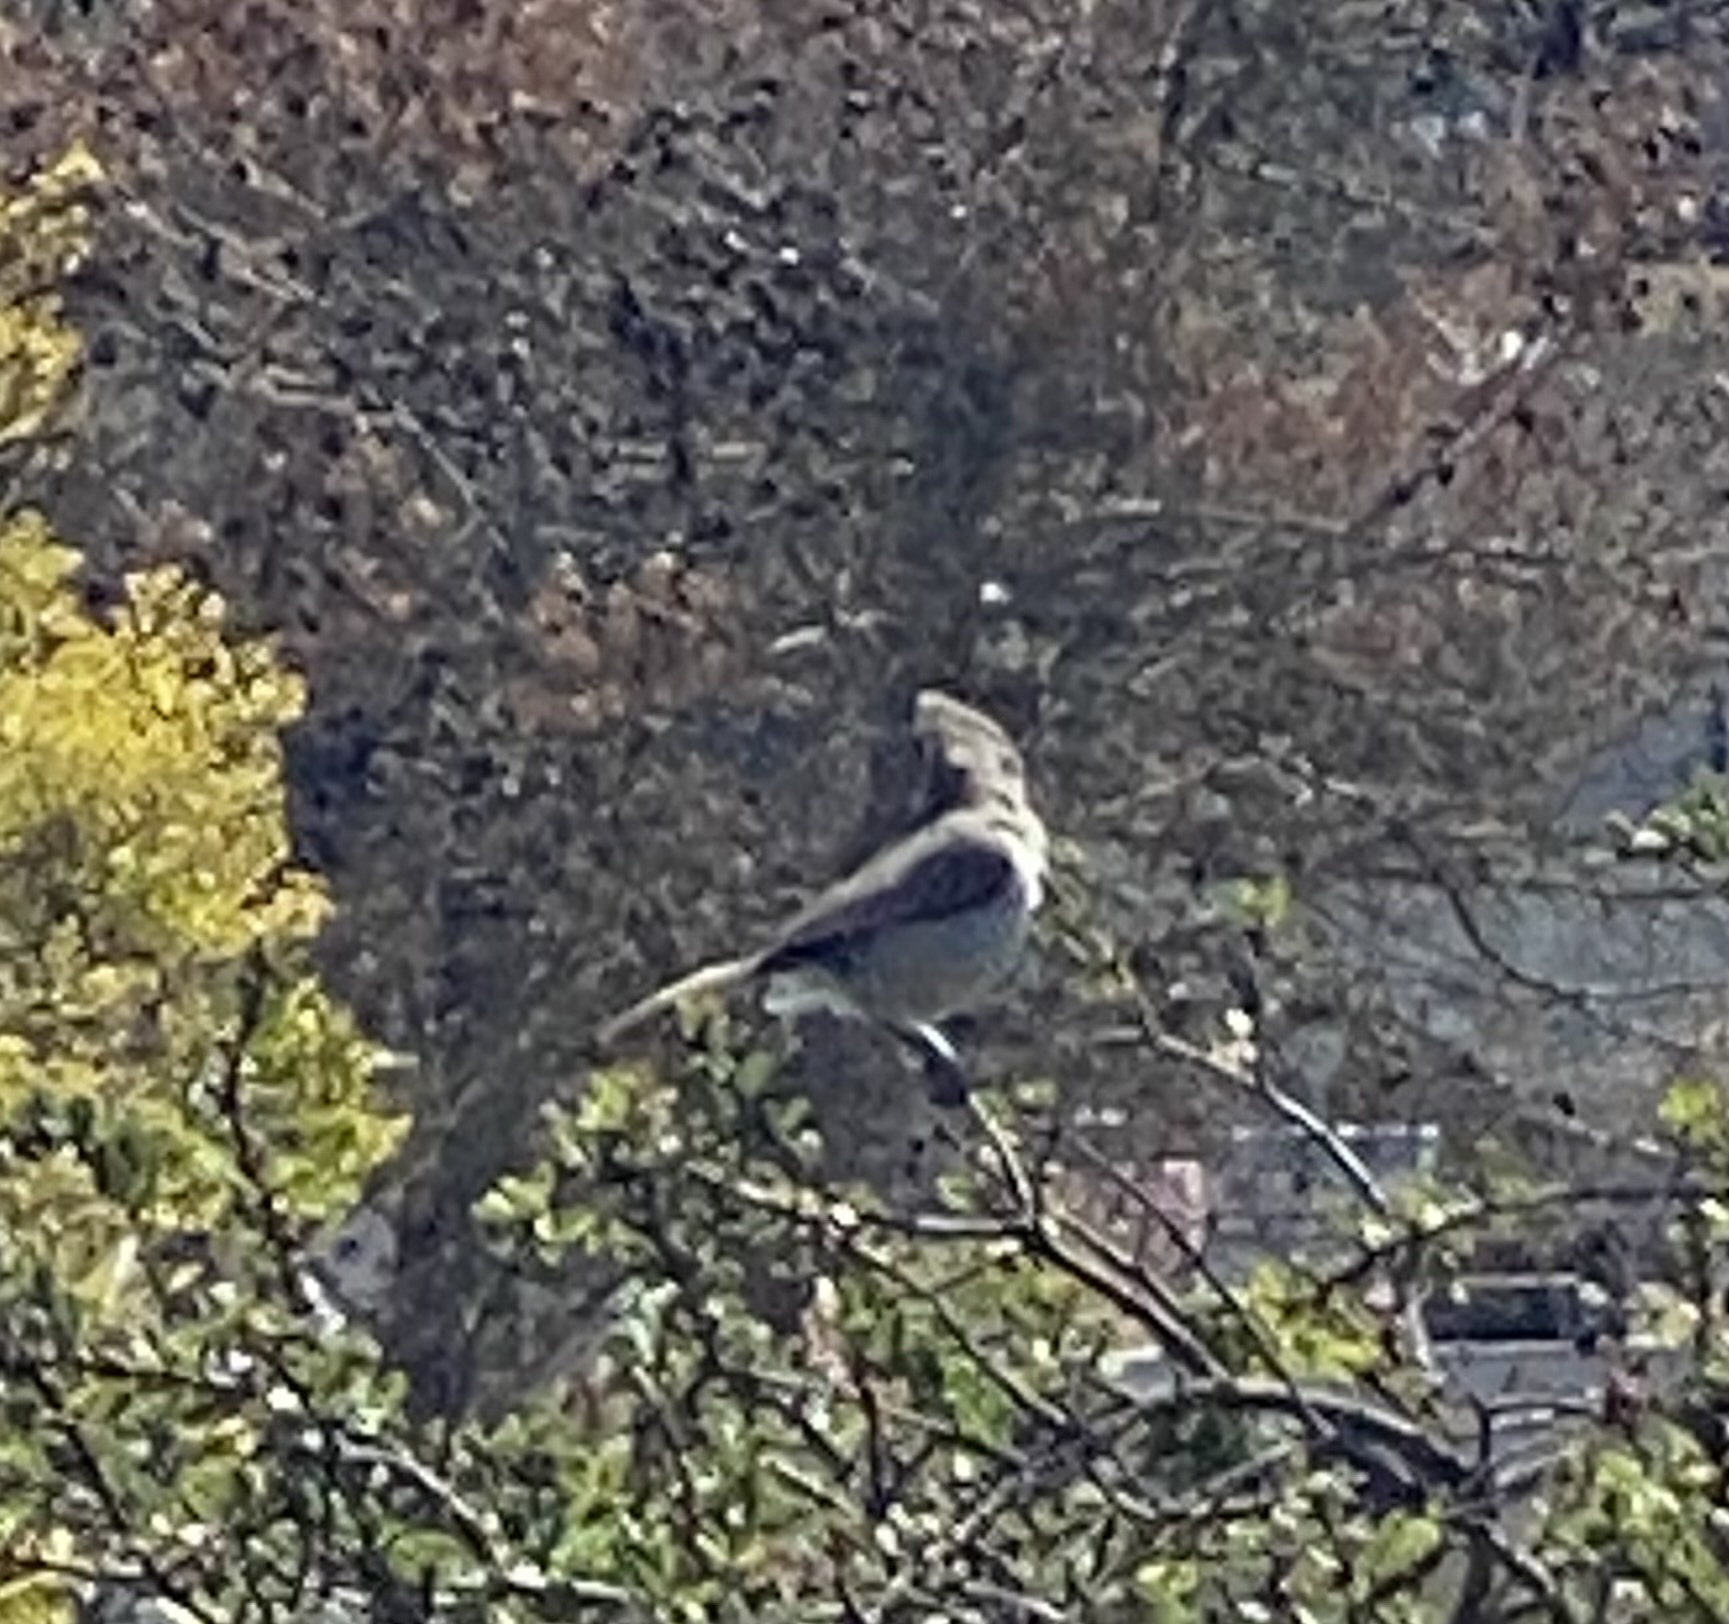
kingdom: Animalia
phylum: Chordata
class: Aves
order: Passeriformes
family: Paridae
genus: Baeolophus
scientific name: Baeolophus inornatus
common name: Oak titmouse
